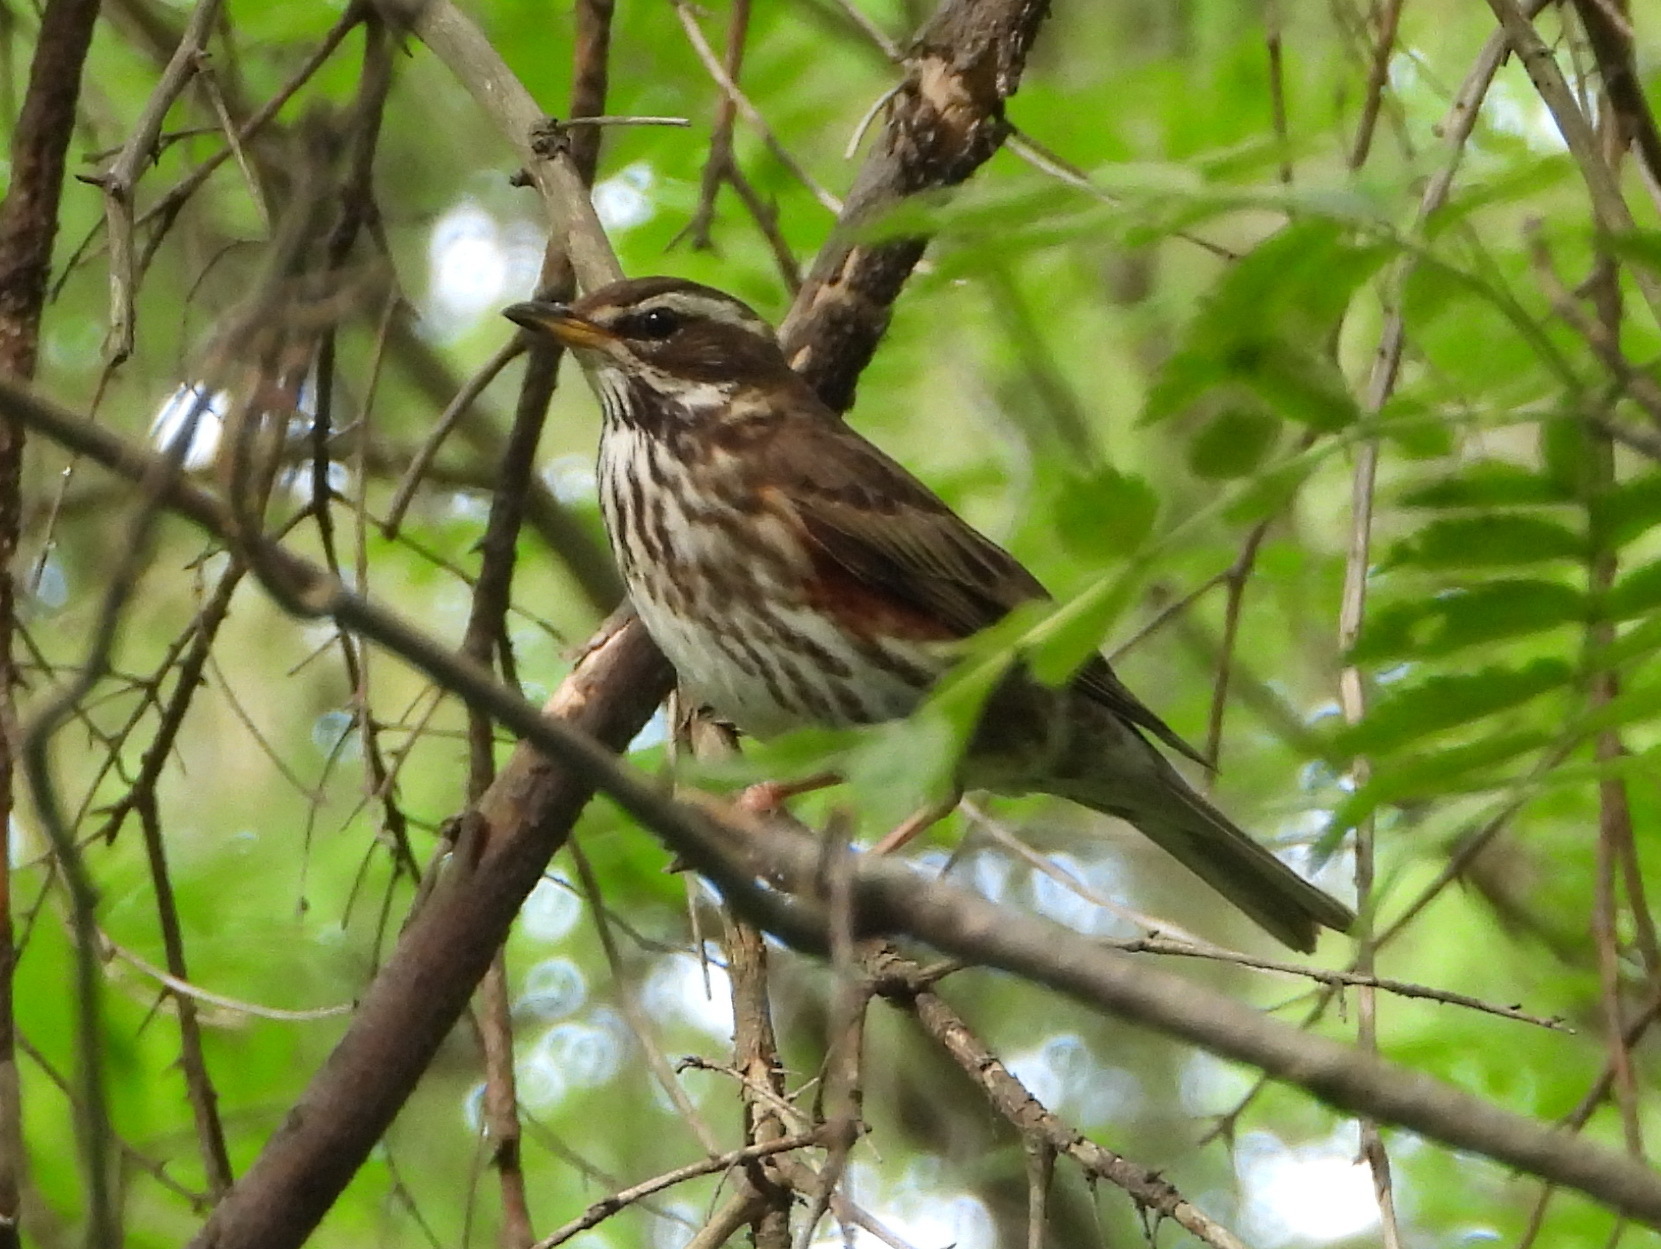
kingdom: Animalia
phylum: Chordata
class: Aves
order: Passeriformes
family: Turdidae
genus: Turdus
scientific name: Turdus iliacus
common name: Redwing
